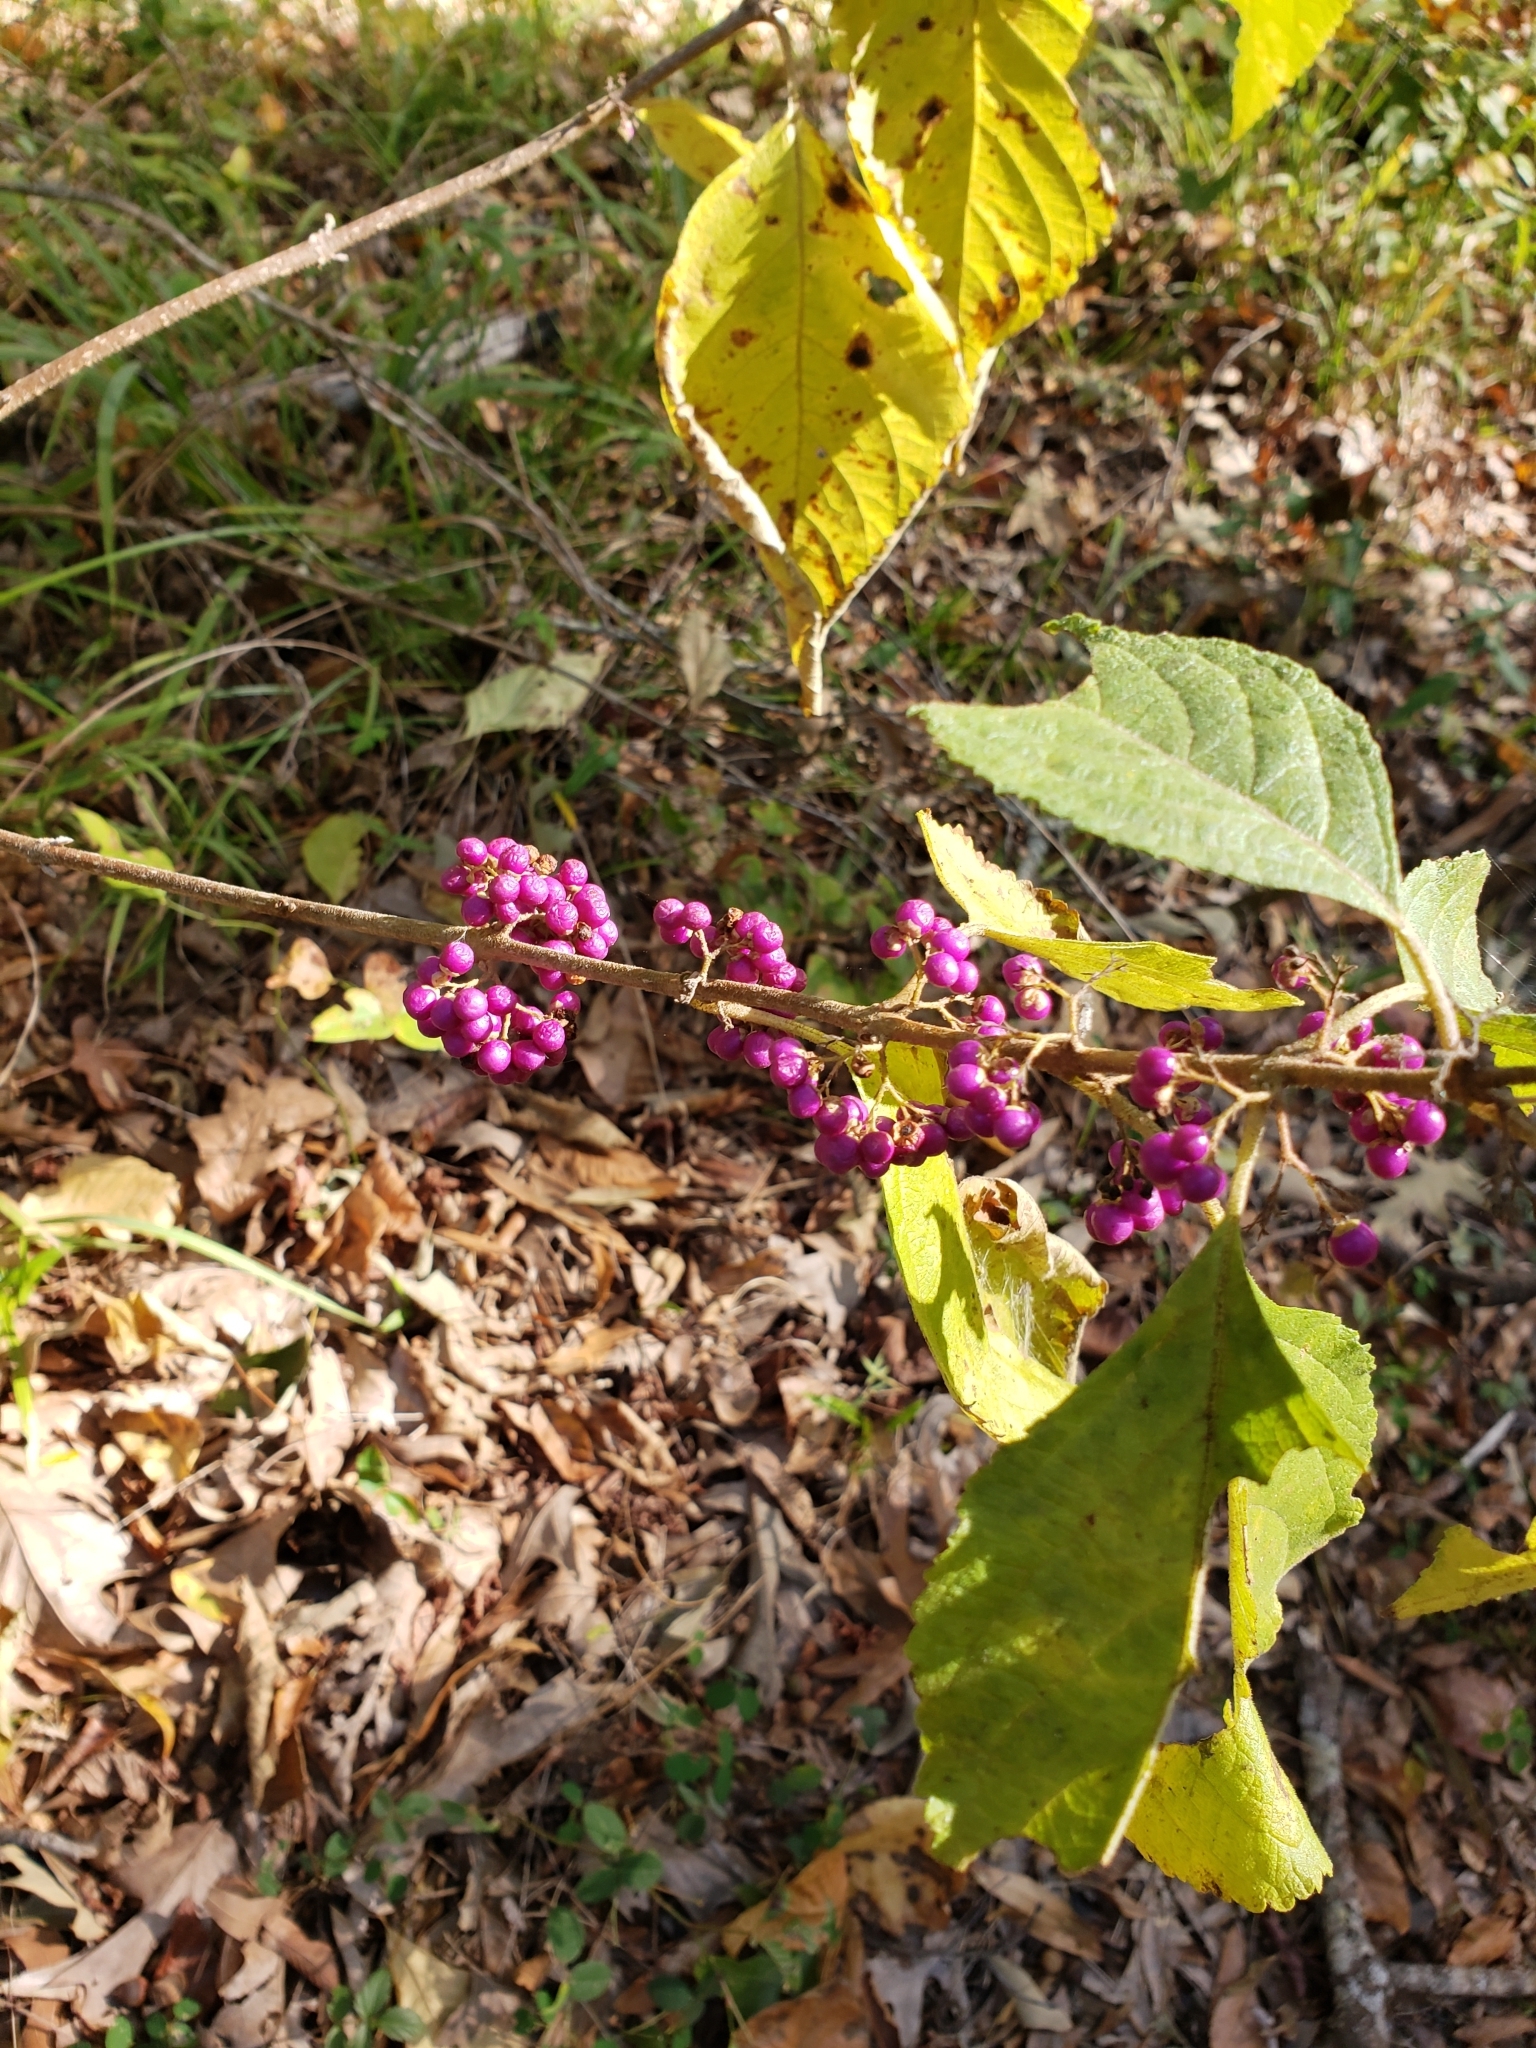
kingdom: Plantae
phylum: Tracheophyta
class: Magnoliopsida
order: Lamiales
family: Lamiaceae
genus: Callicarpa
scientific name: Callicarpa americana
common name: American beautyberry
